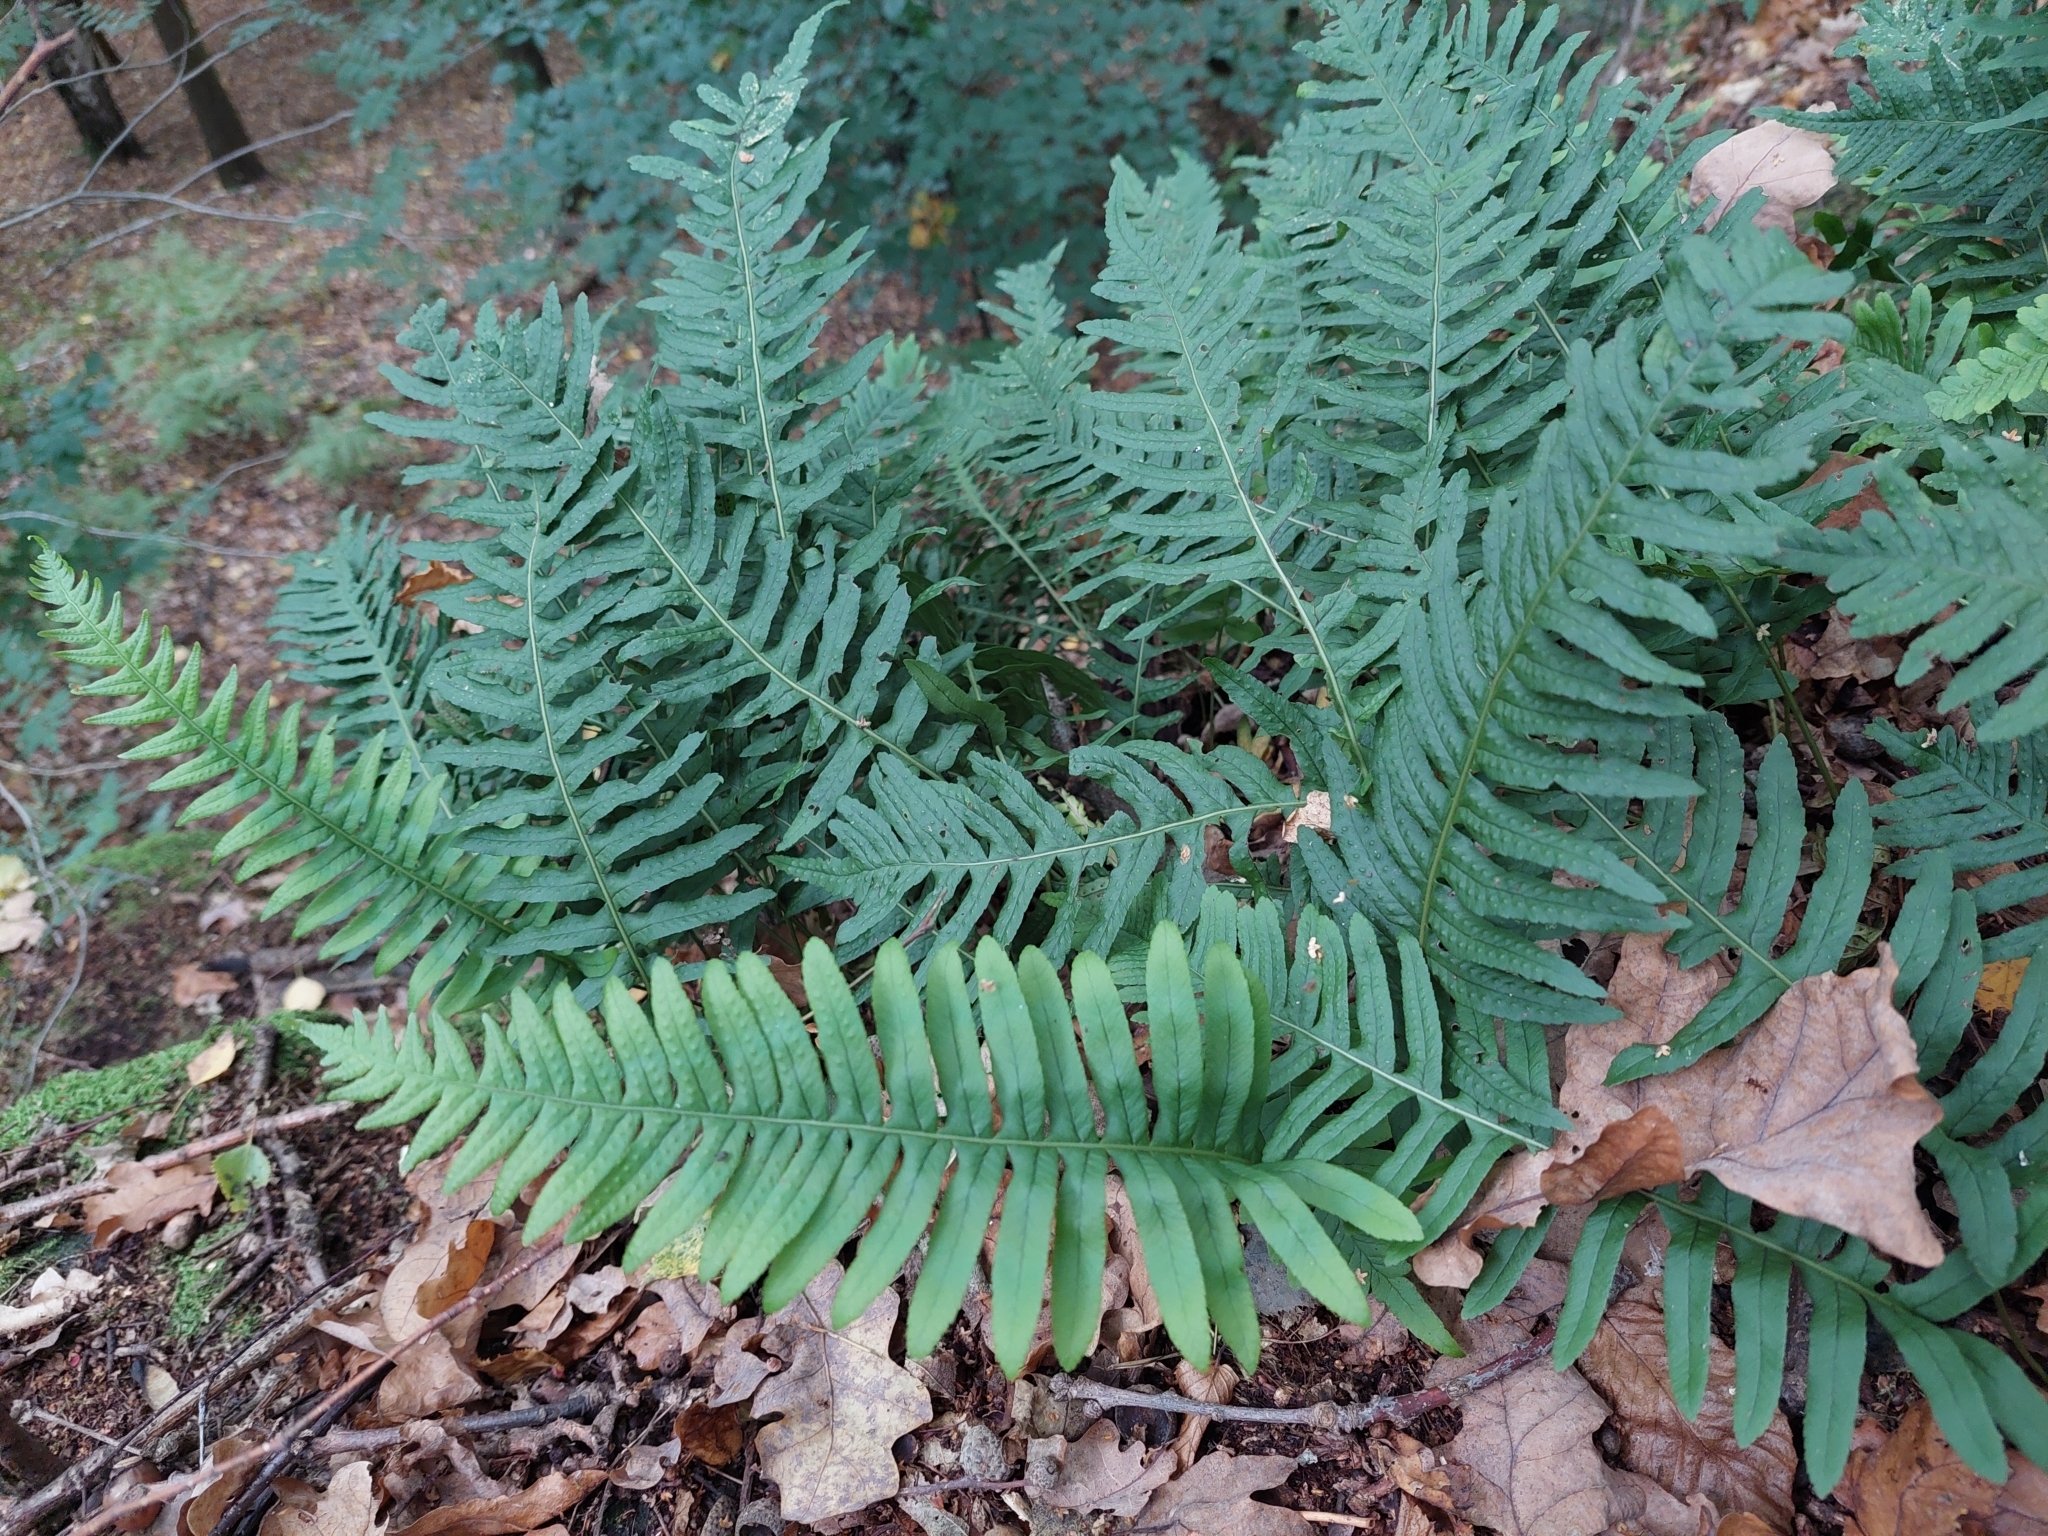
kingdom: Plantae
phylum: Tracheophyta
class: Polypodiopsida
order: Polypodiales
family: Polypodiaceae
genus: Polypodium
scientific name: Polypodium vulgare
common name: Common polypody
